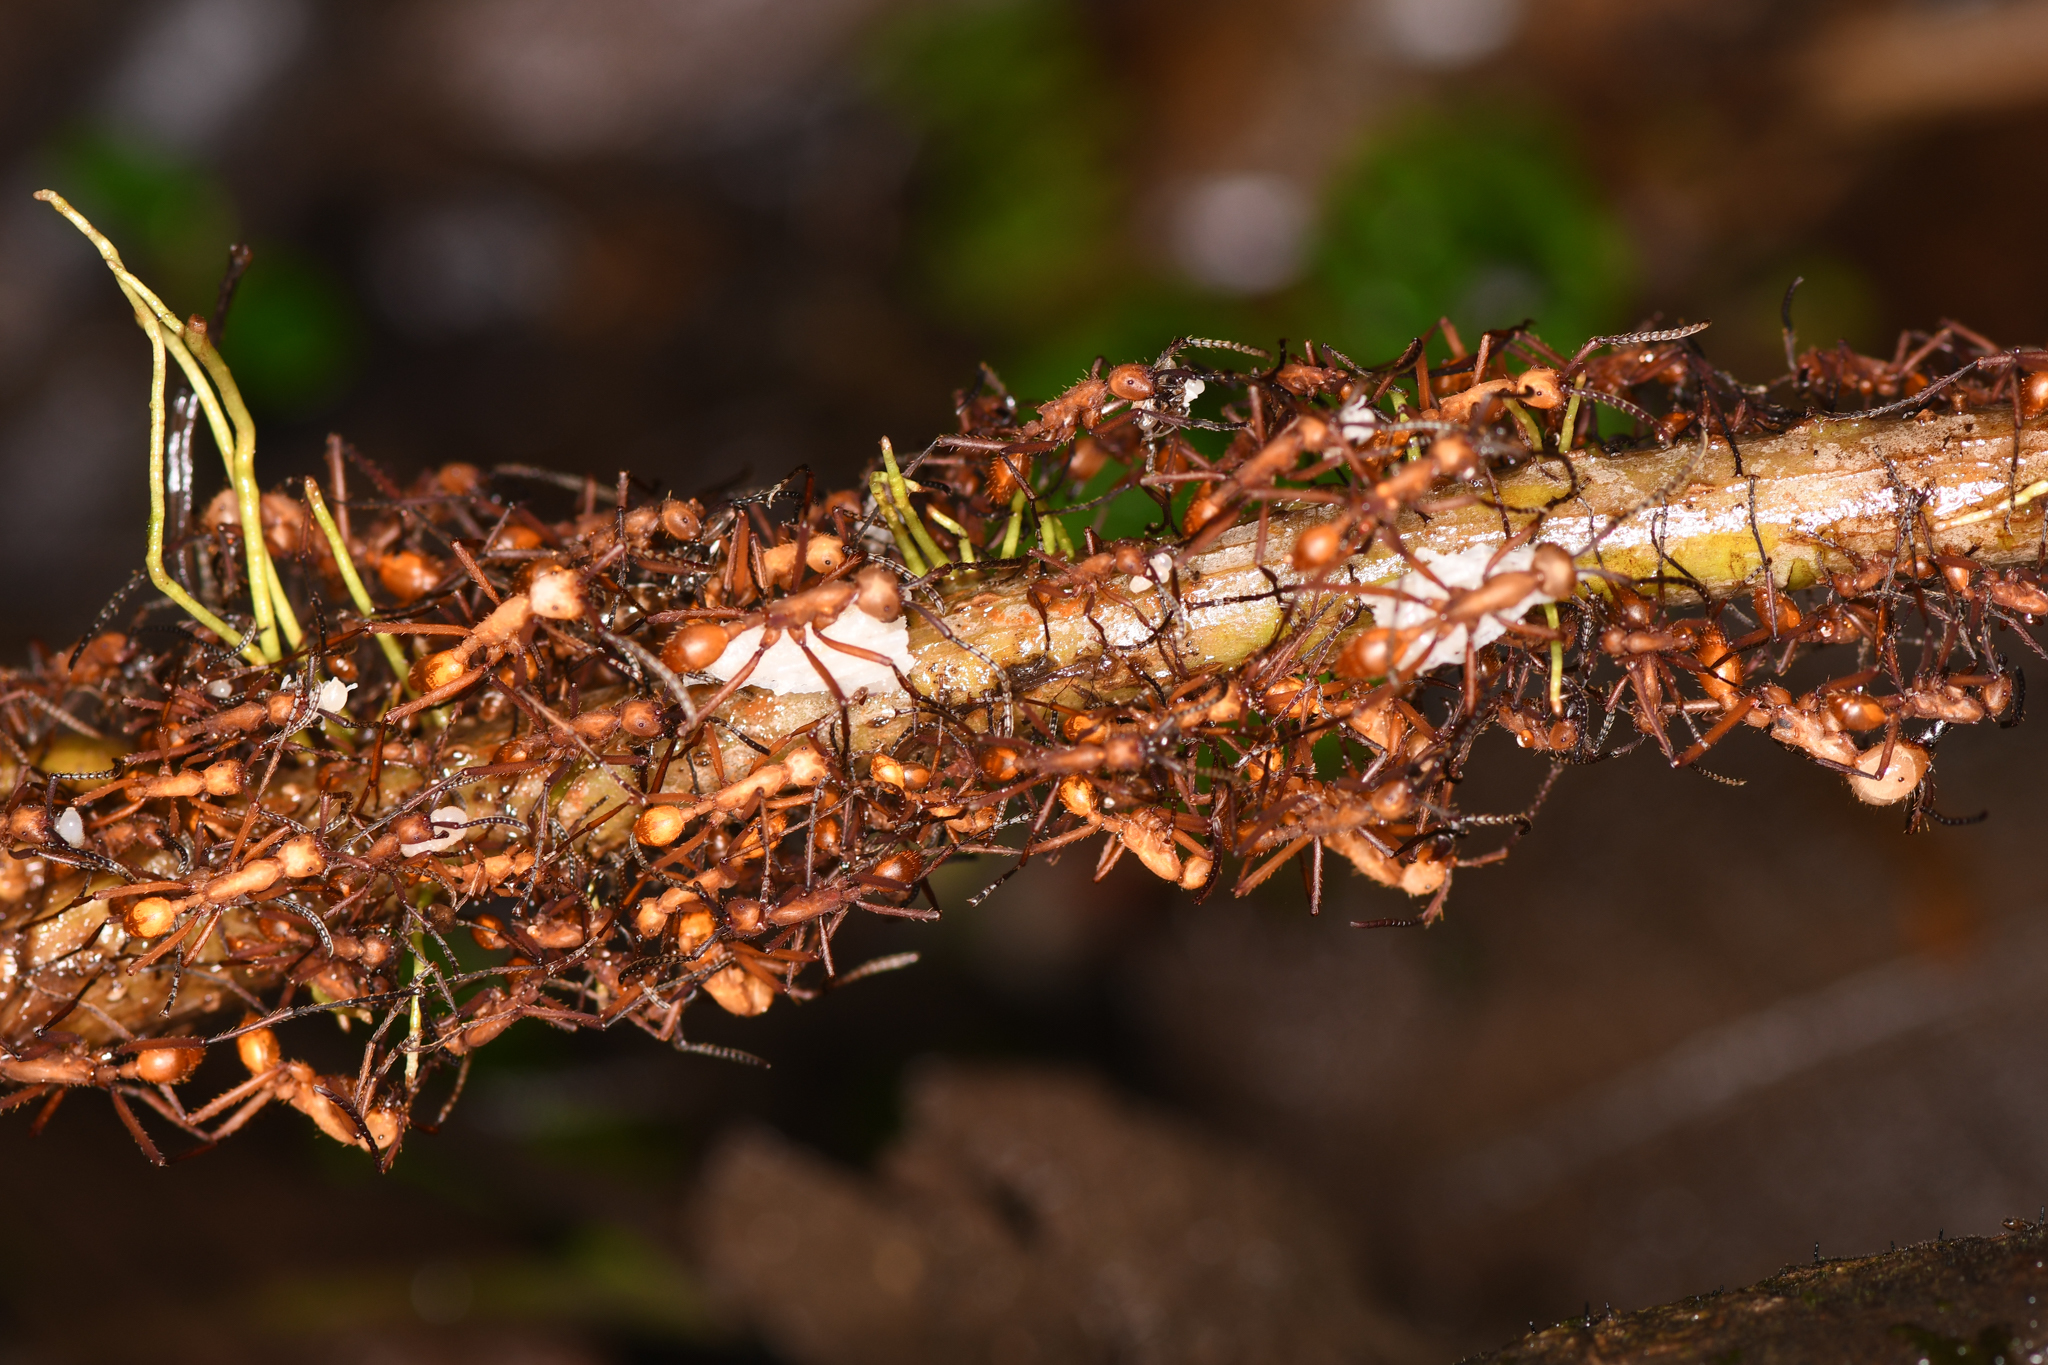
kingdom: Animalia
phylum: Arthropoda
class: Insecta
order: Hymenoptera
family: Formicidae
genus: Eciton
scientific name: Eciton hamatum
